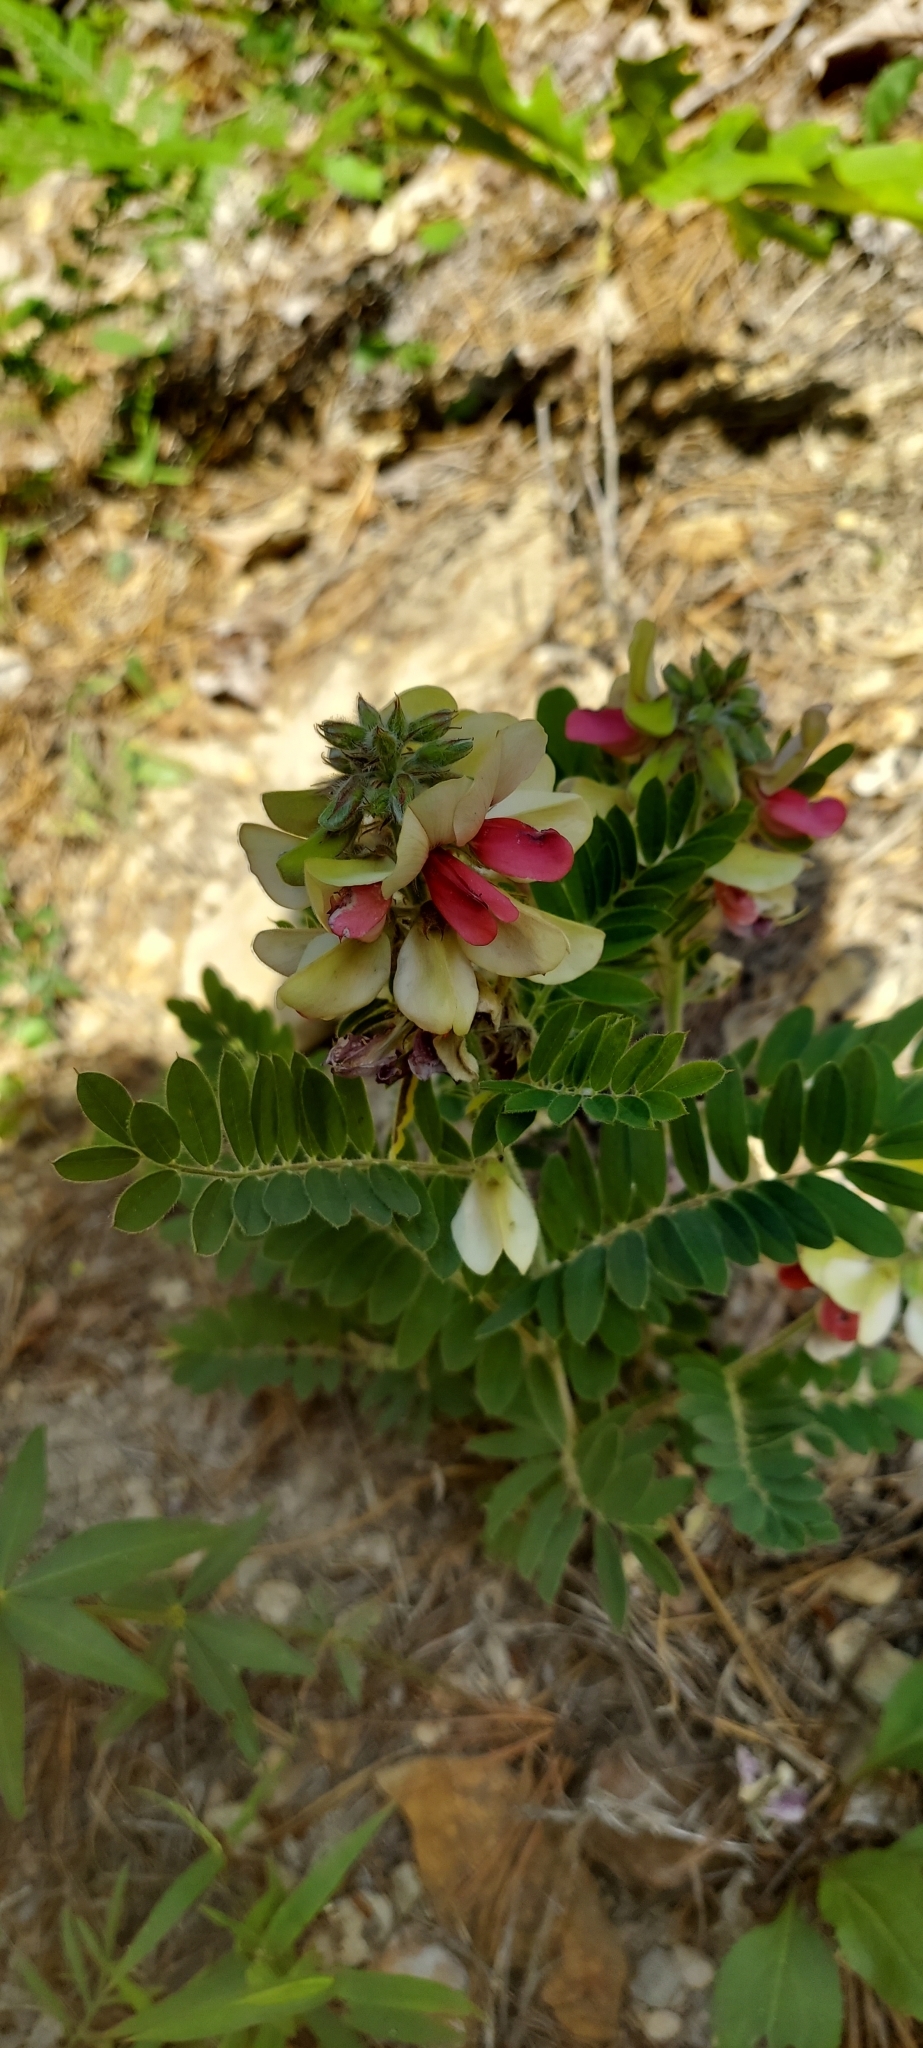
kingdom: Plantae
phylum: Tracheophyta
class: Magnoliopsida
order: Fabales
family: Fabaceae
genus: Tephrosia
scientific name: Tephrosia virginiana
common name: Rabbit-pea
